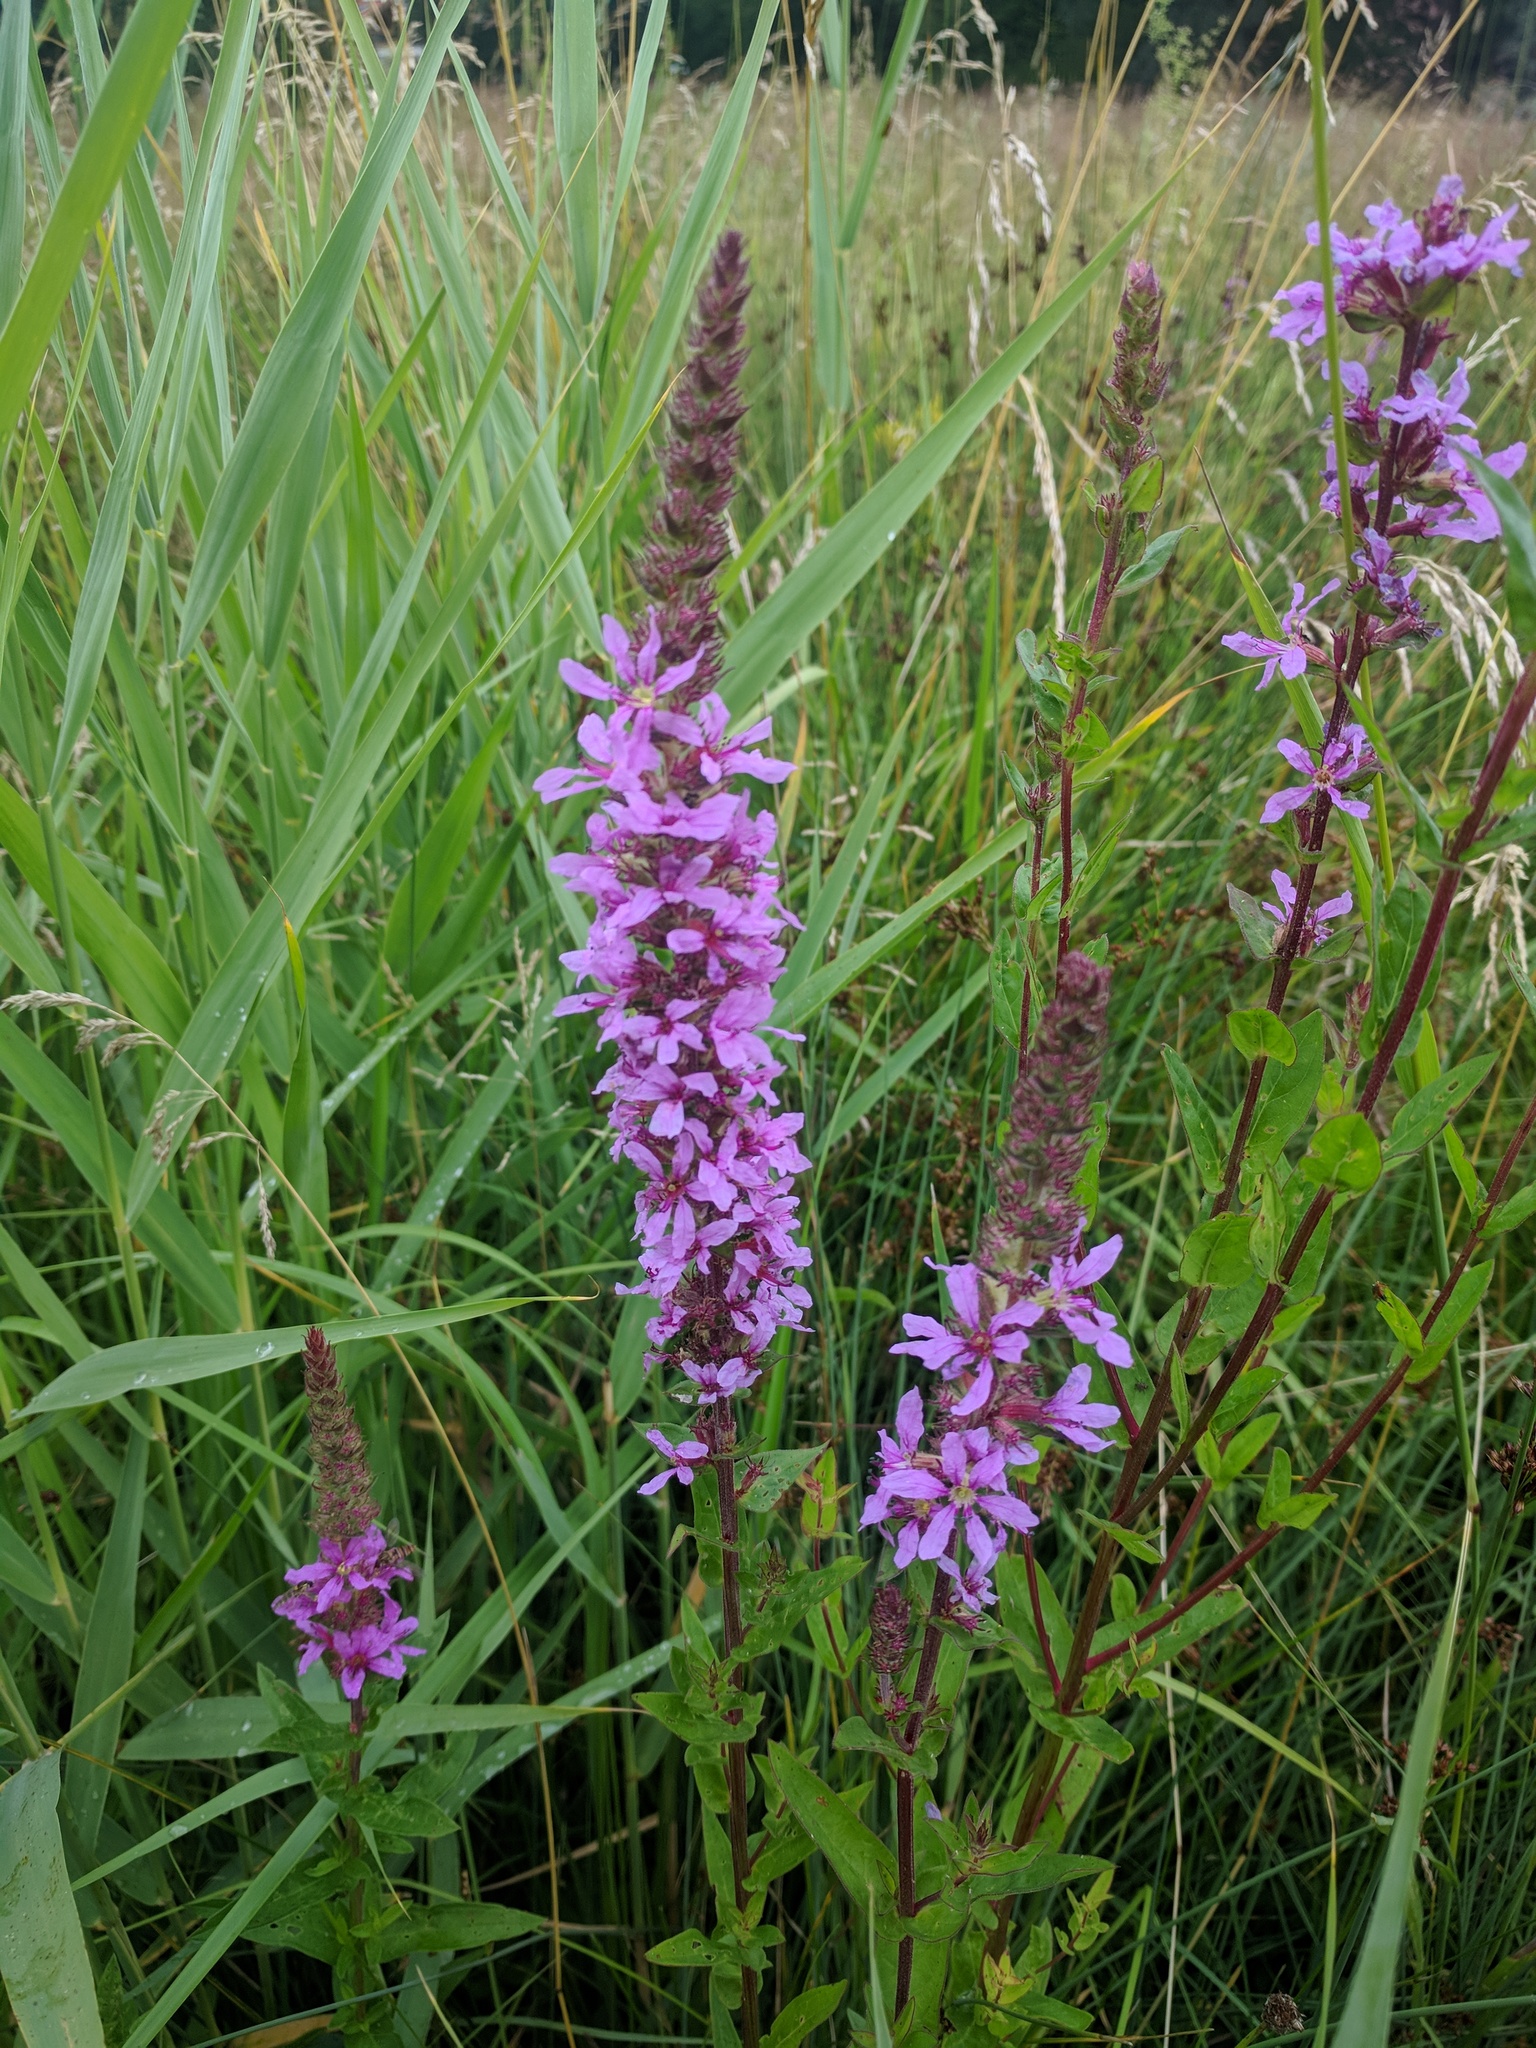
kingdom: Plantae
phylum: Tracheophyta
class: Magnoliopsida
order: Myrtales
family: Lythraceae
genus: Lythrum
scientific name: Lythrum salicaria
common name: Purple loosestrife
